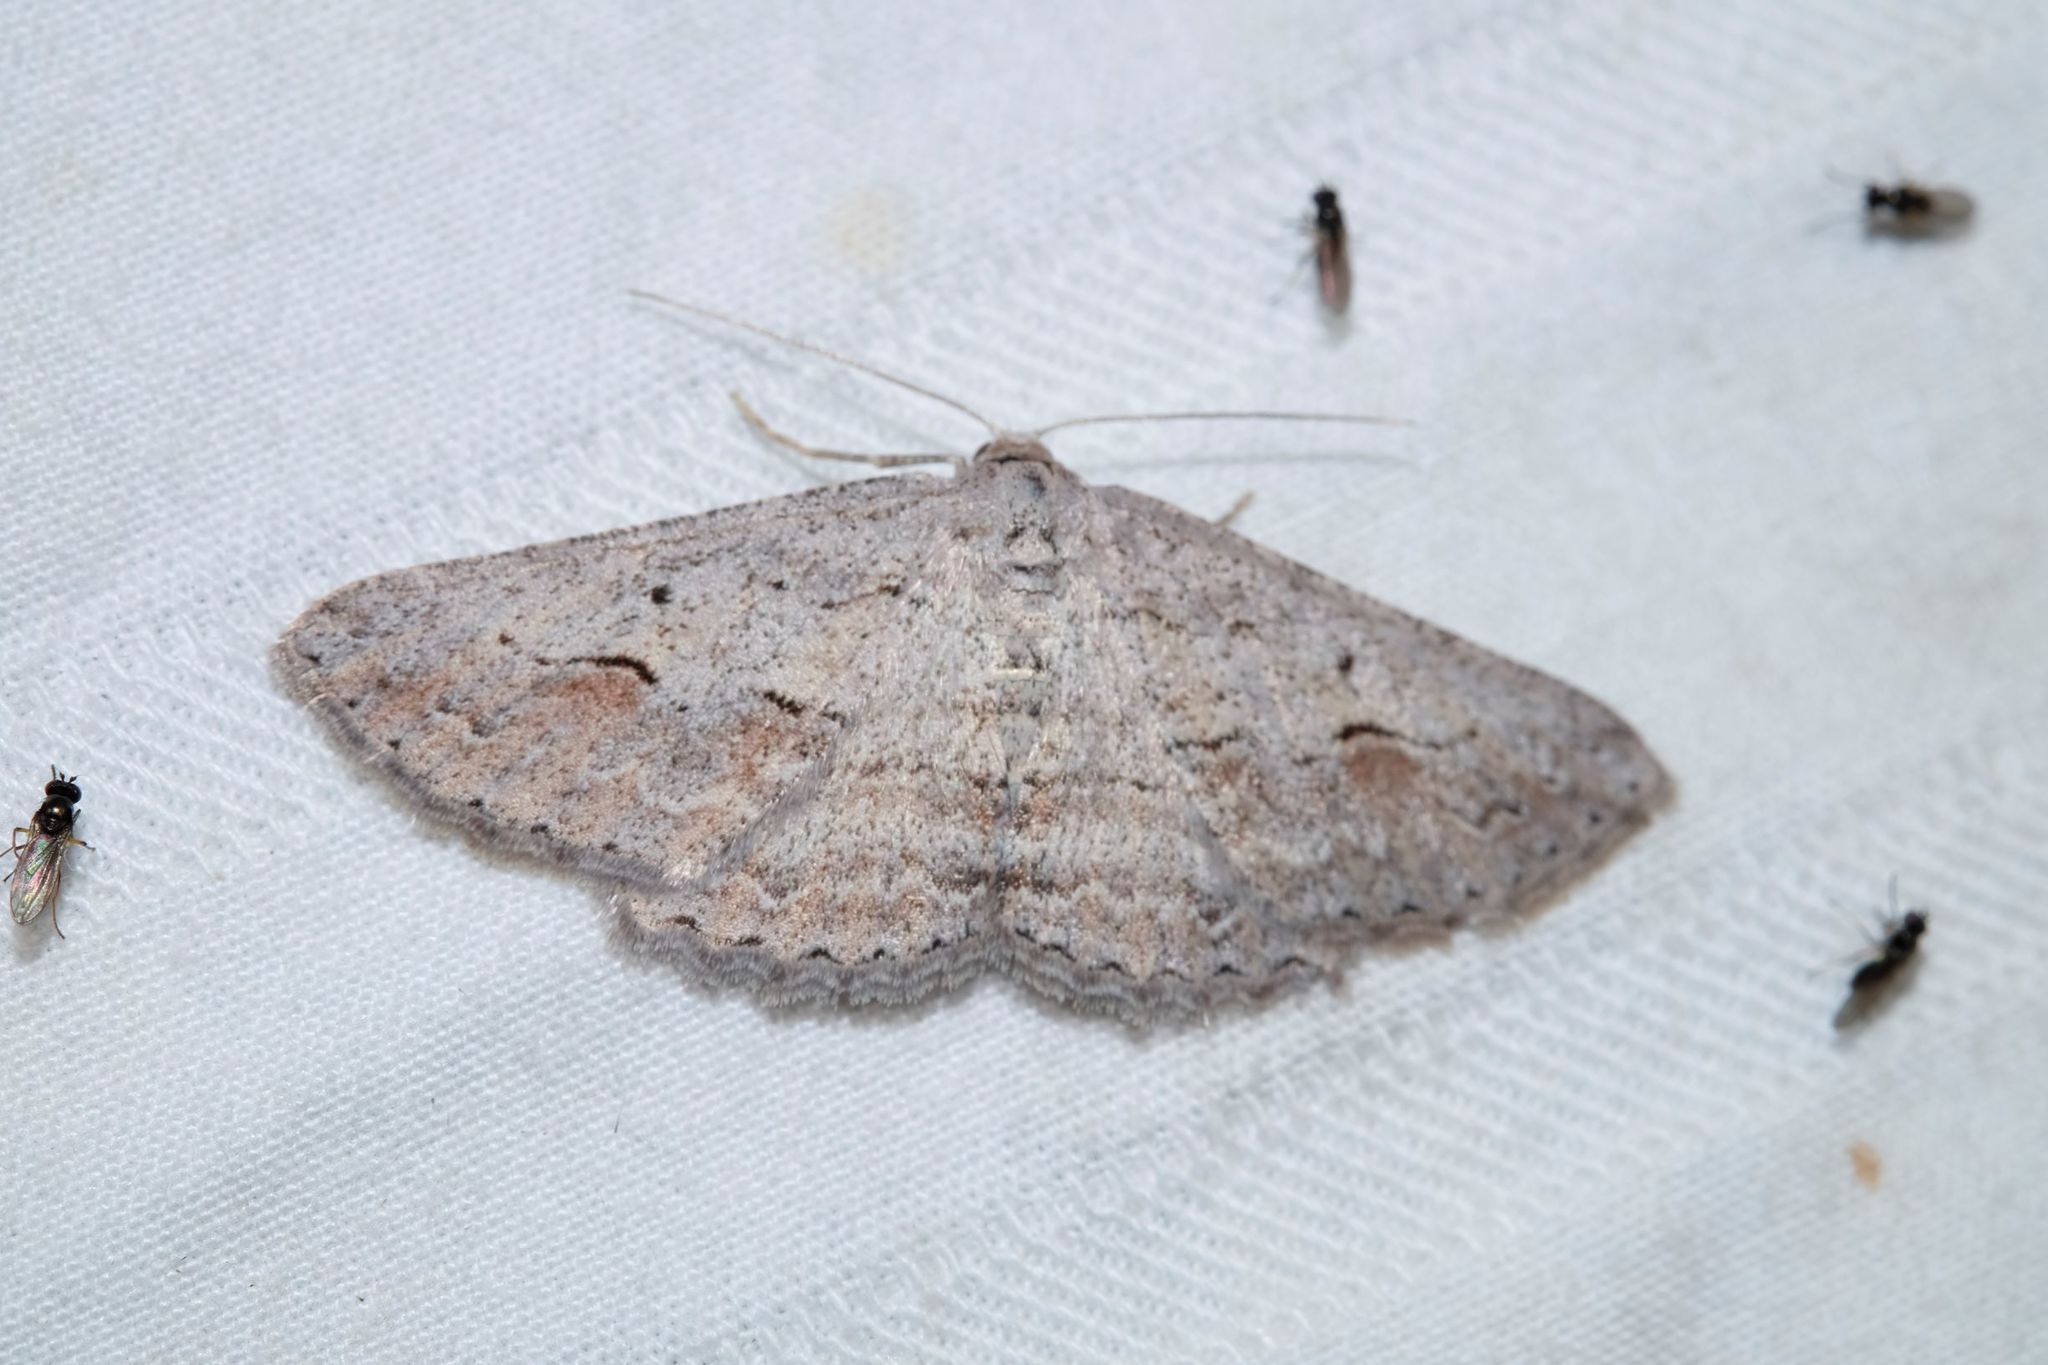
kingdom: Animalia
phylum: Arthropoda
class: Insecta
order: Lepidoptera
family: Geometridae
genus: Syneora
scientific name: Syneora mundifera
